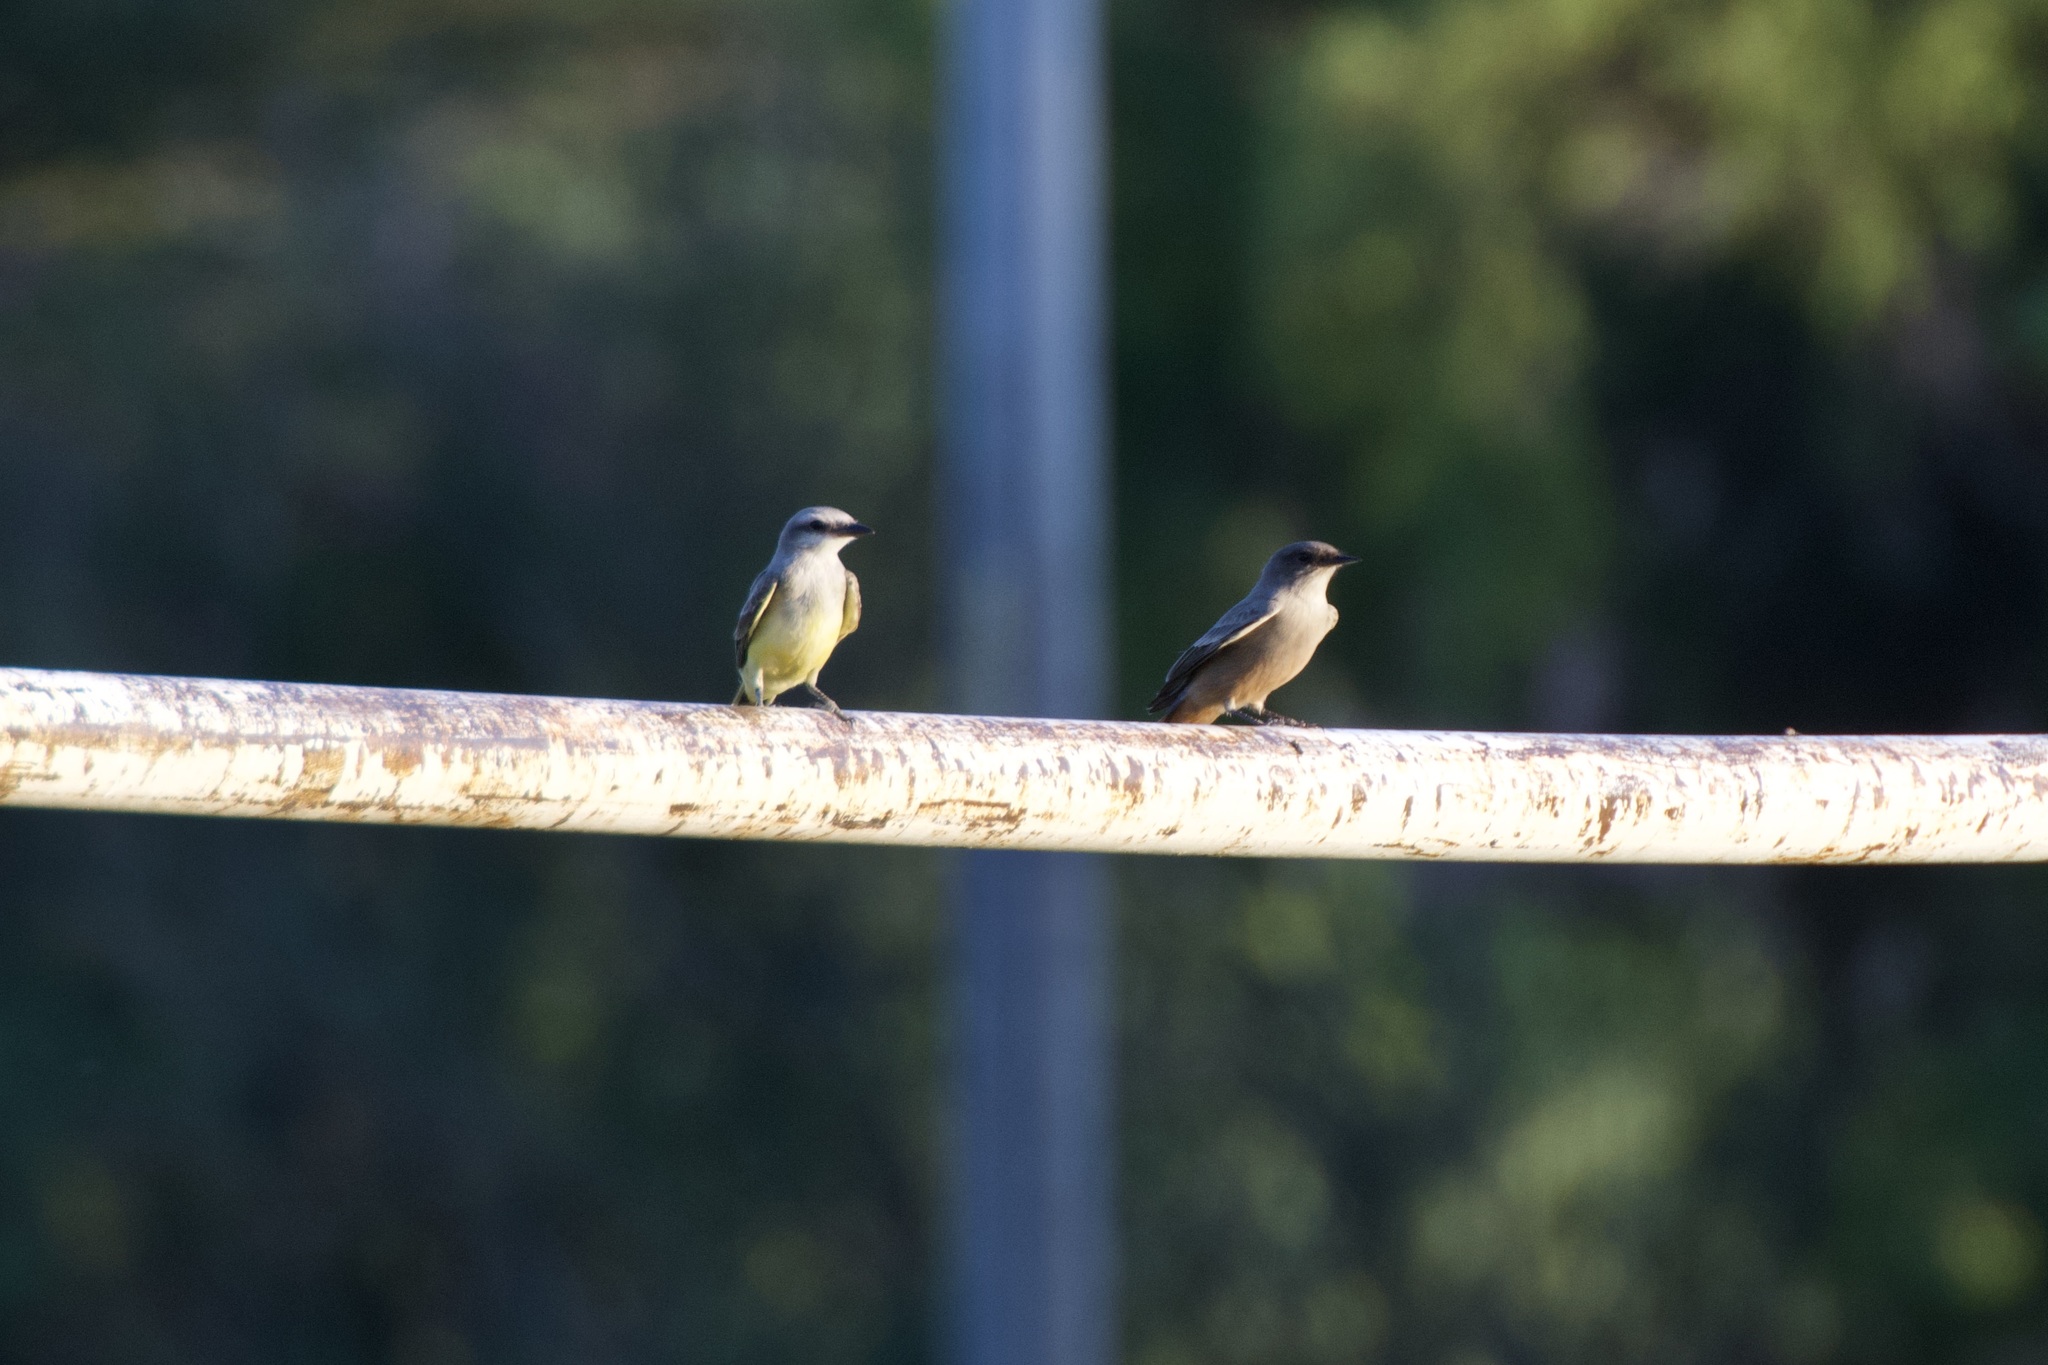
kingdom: Animalia
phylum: Chordata
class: Aves
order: Passeriformes
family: Tyrannidae
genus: Tyrannus
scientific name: Tyrannus verticalis
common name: Western kingbird
